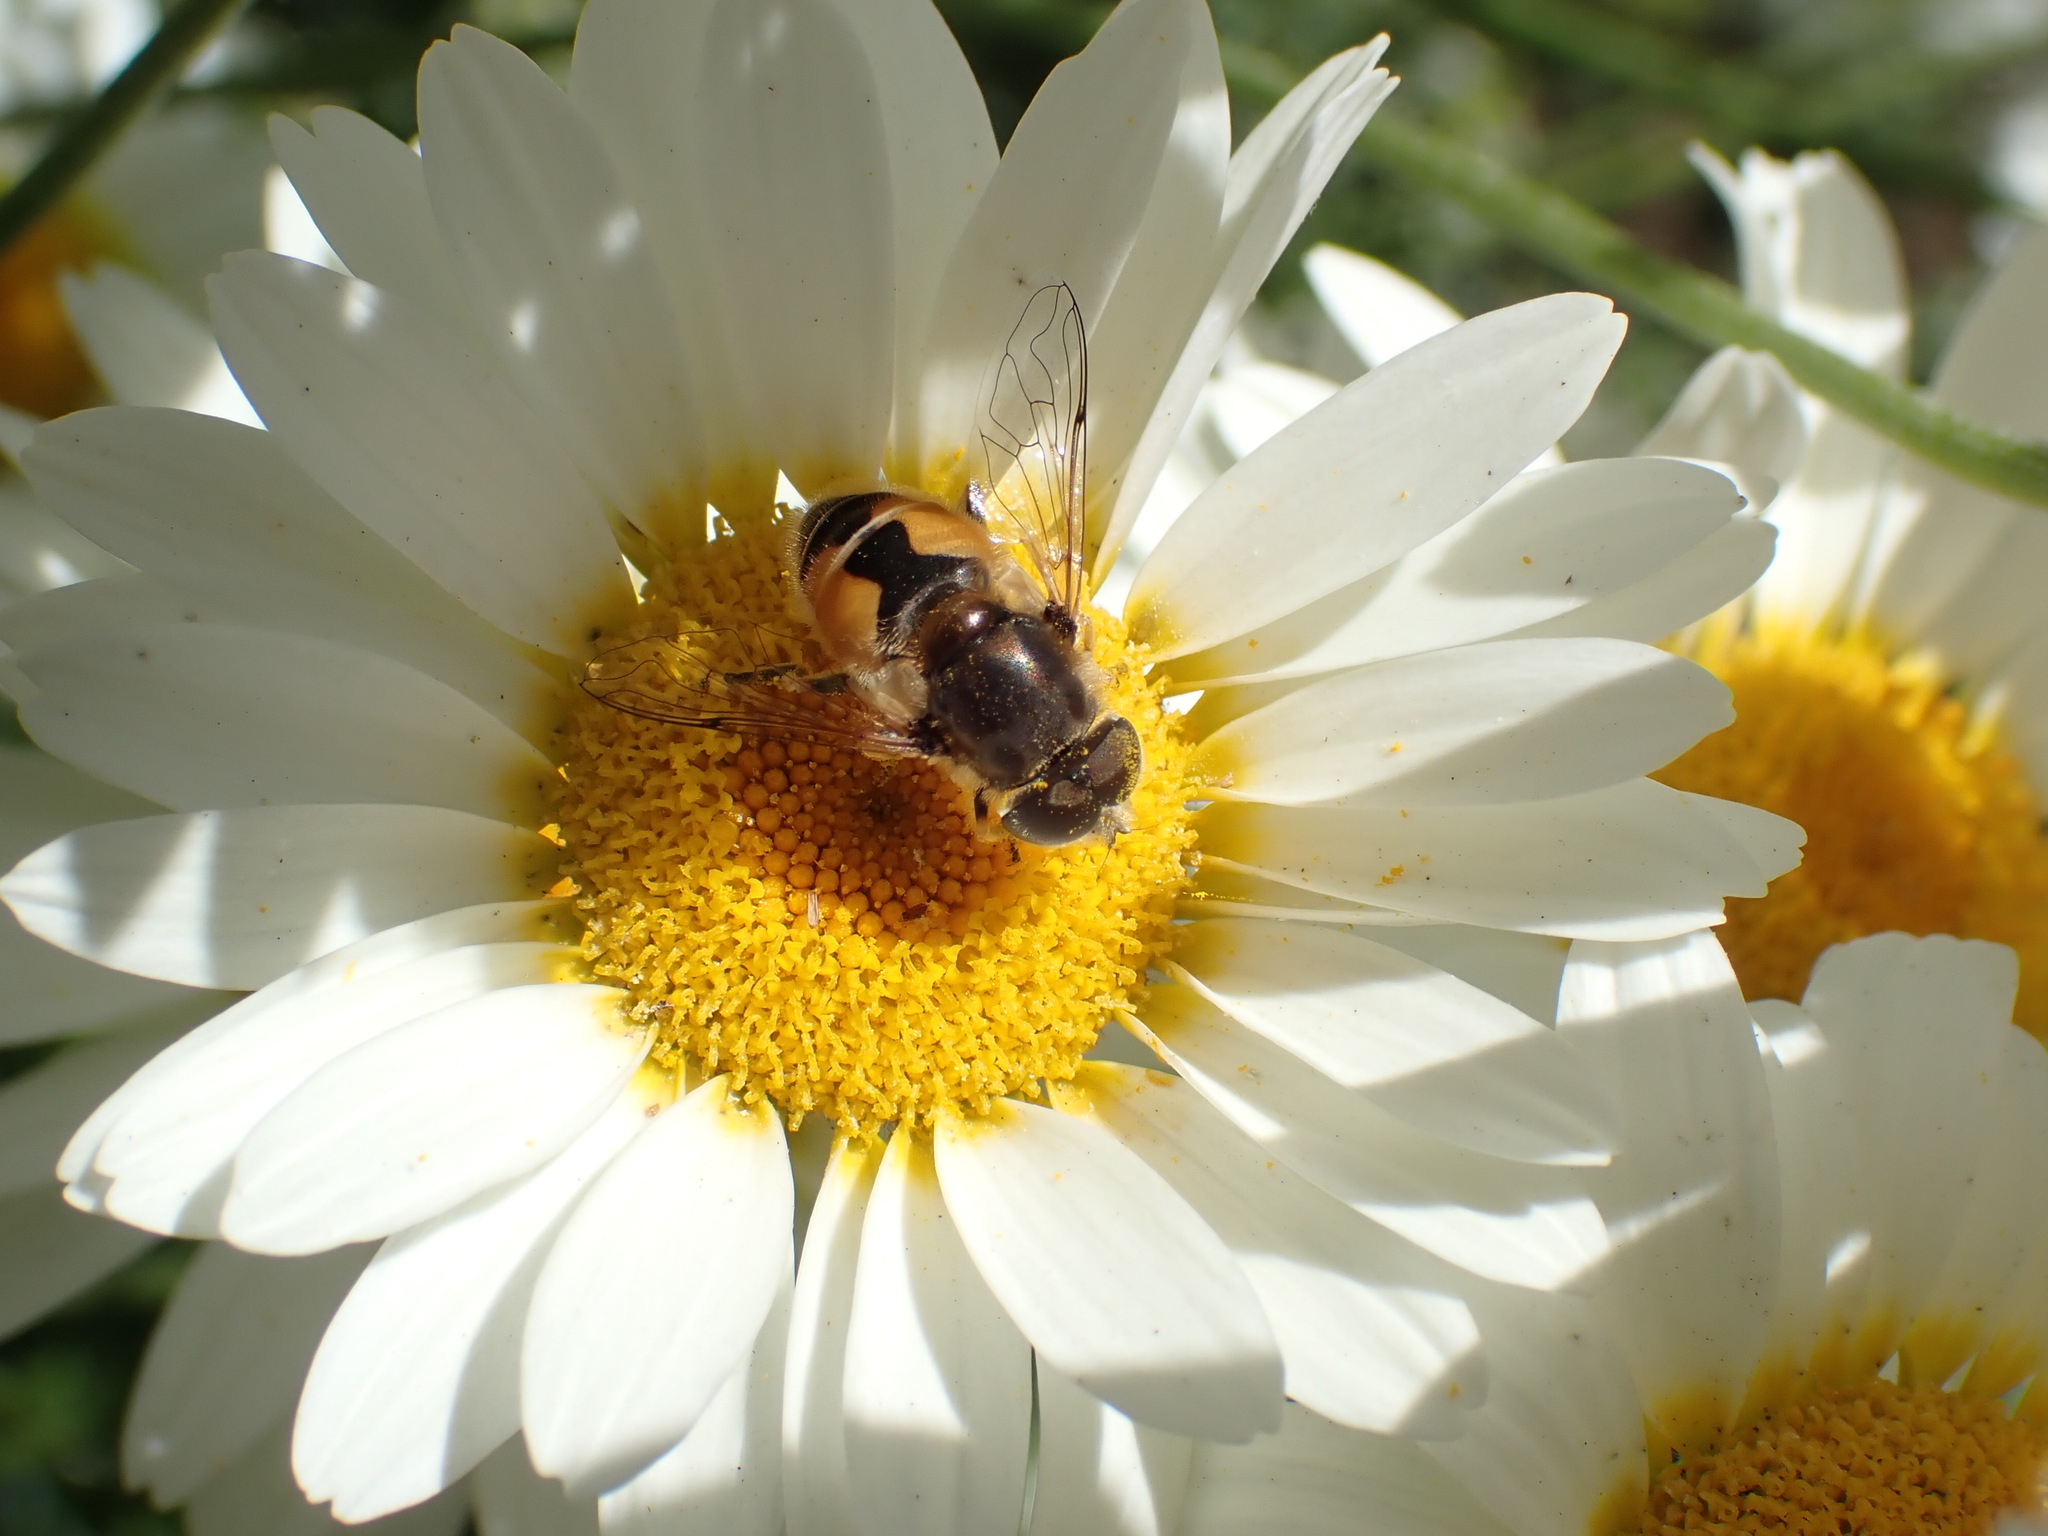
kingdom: Animalia
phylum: Arthropoda
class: Insecta
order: Diptera
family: Syrphidae
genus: Eristalis
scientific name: Eristalis arbustorum
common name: Hover fly
